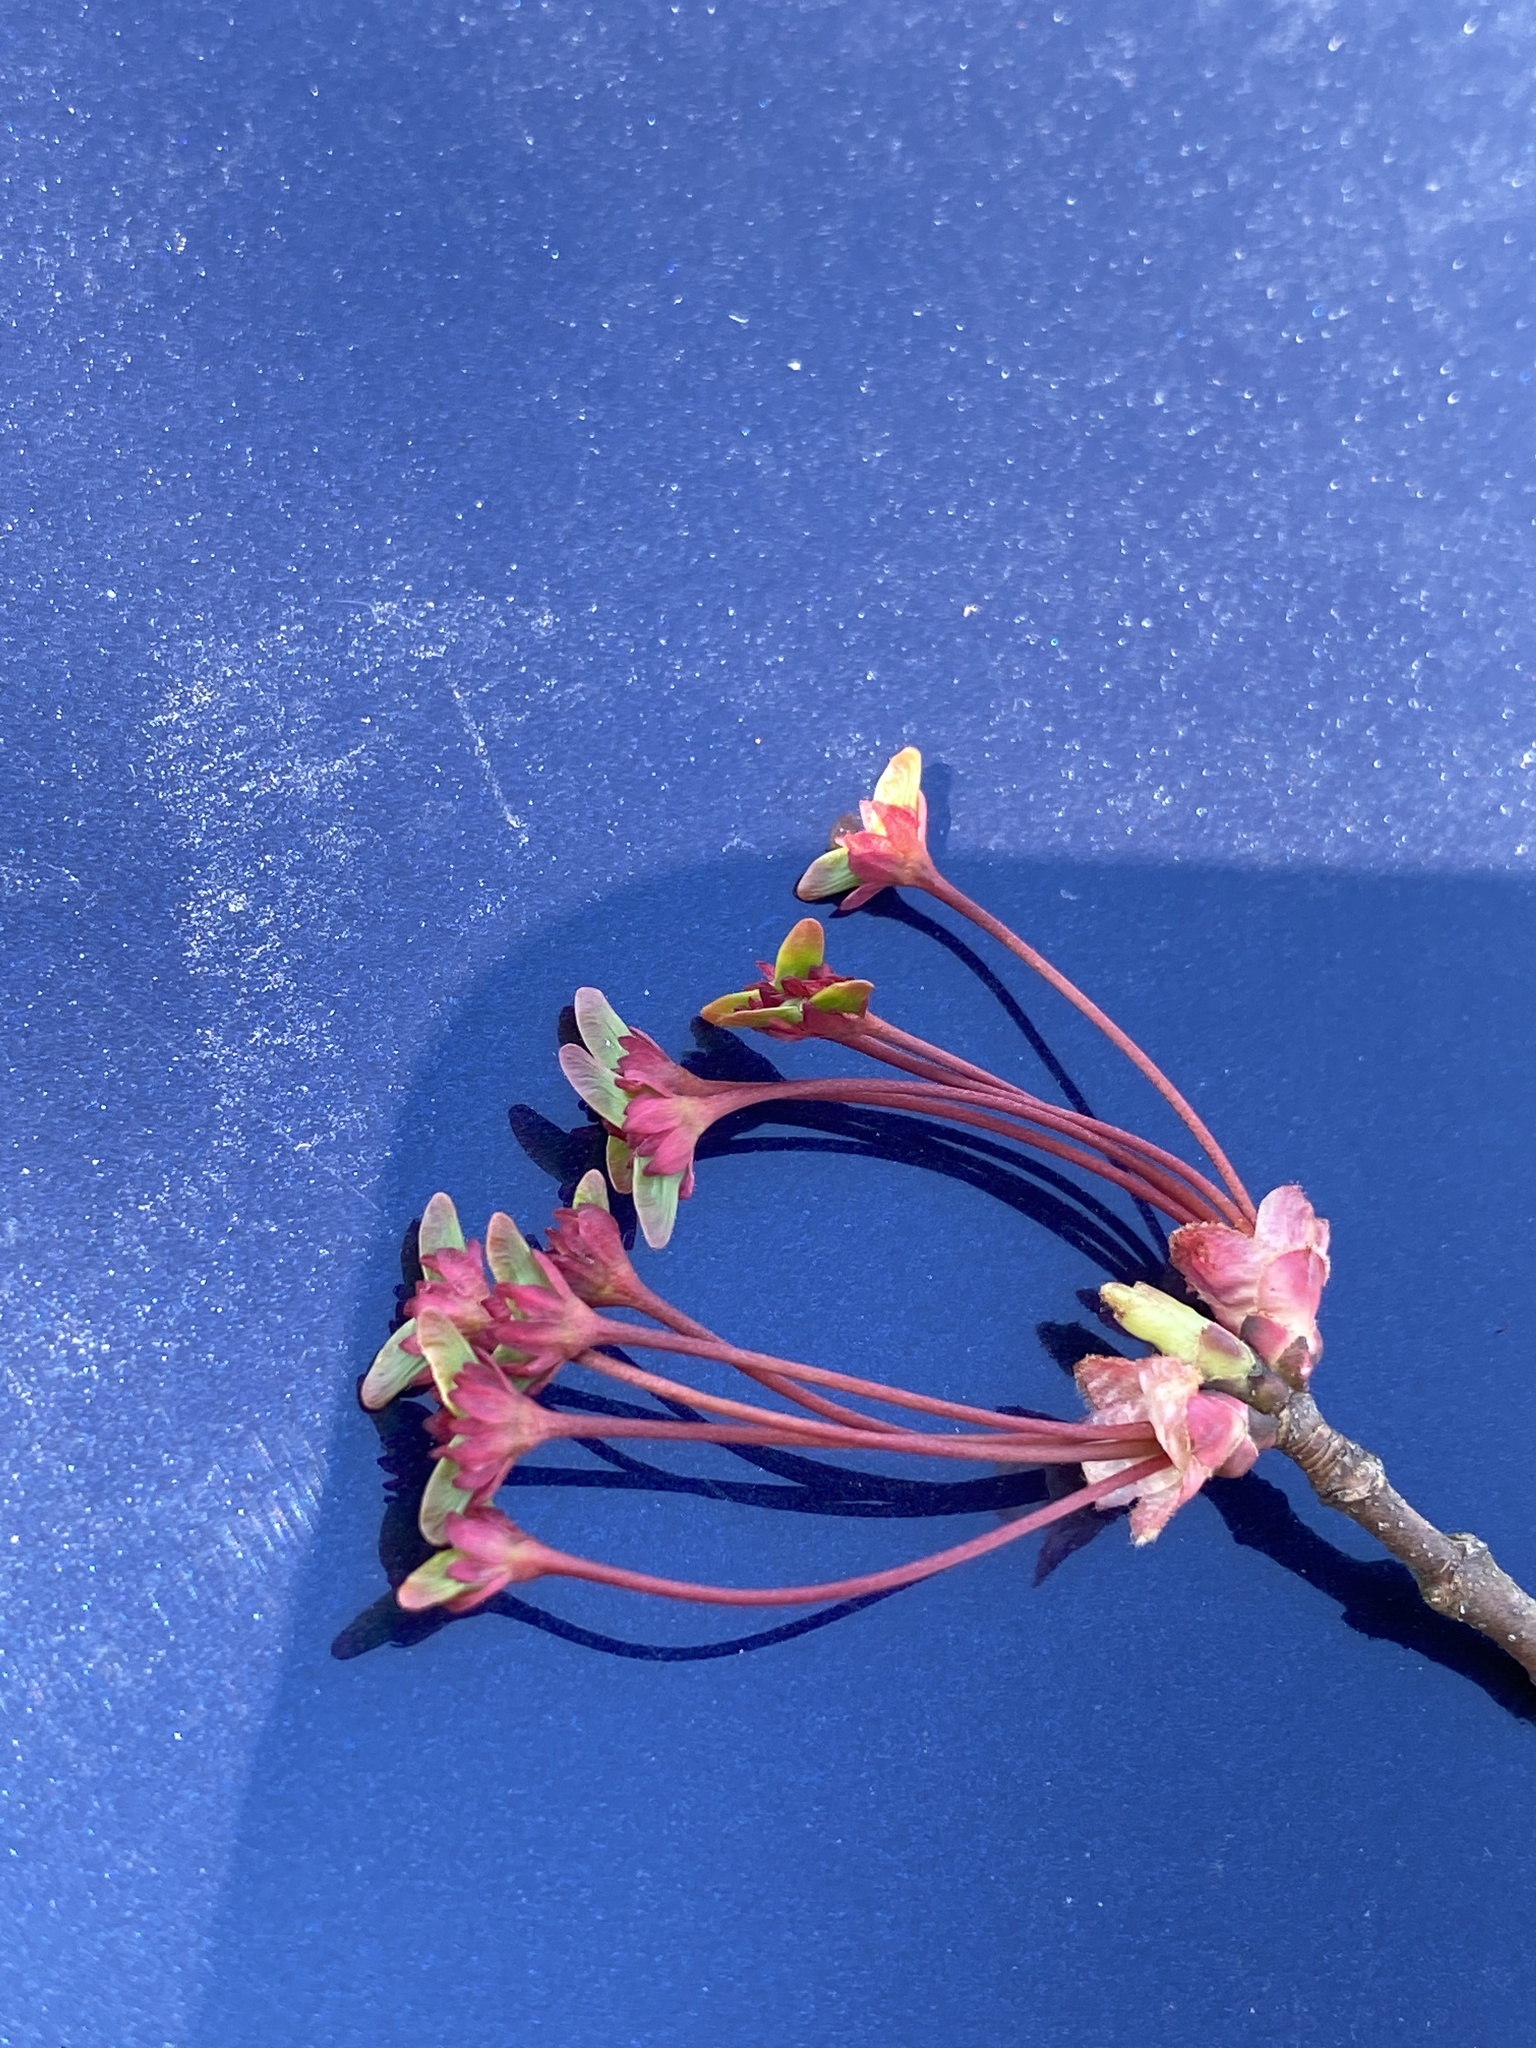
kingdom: Plantae
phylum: Tracheophyta
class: Magnoliopsida
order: Sapindales
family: Sapindaceae
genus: Acer
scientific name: Acer rubrum
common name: Red maple
